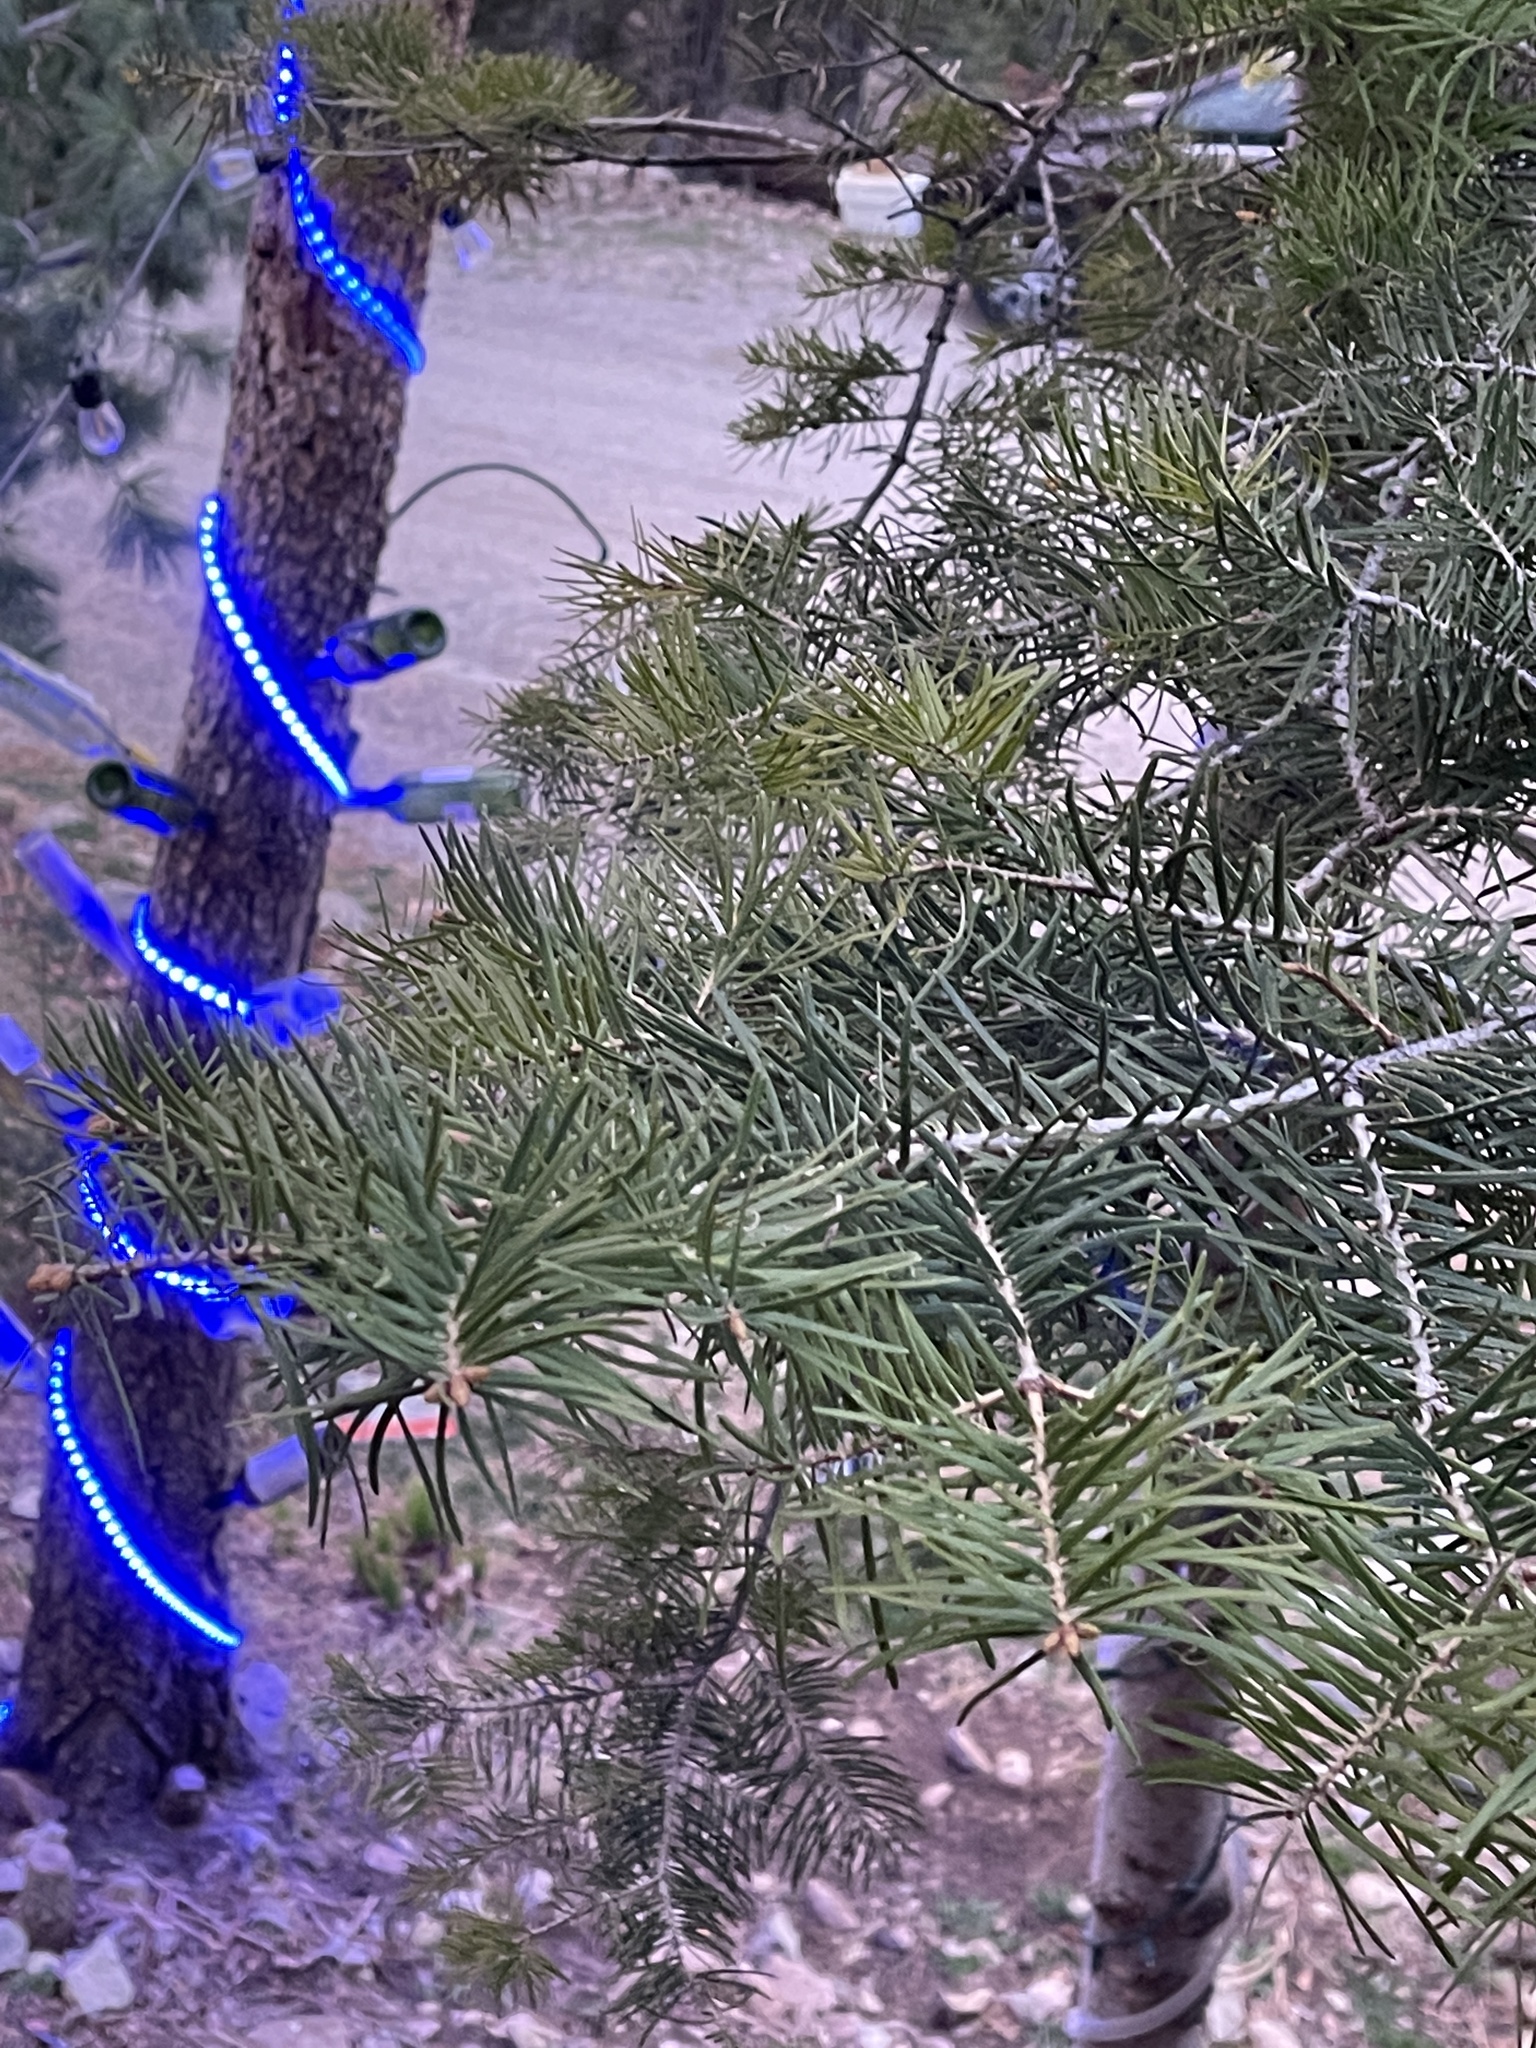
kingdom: Plantae
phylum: Tracheophyta
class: Pinopsida
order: Pinales
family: Pinaceae
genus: Abies
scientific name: Abies concolor
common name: Colorado fir
